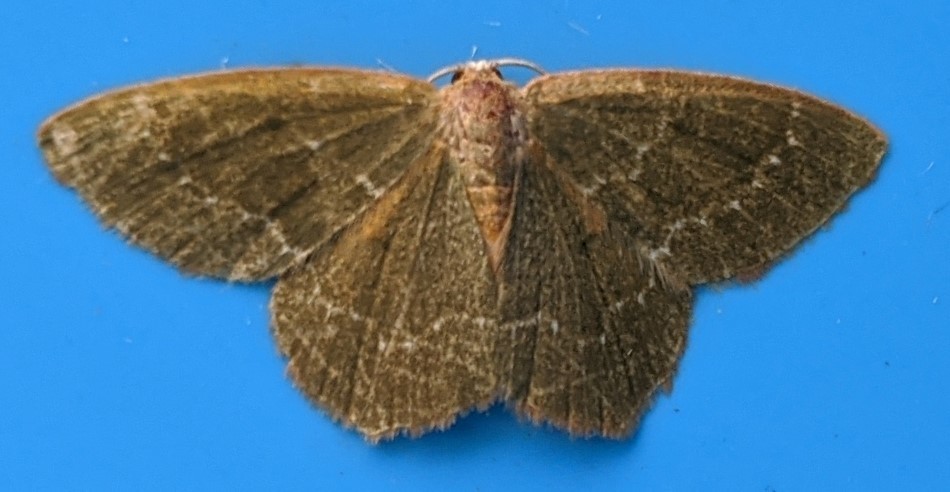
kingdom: Animalia
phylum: Arthropoda
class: Insecta
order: Lepidoptera
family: Geometridae
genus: Thalera
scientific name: Thalera pistasciaria
